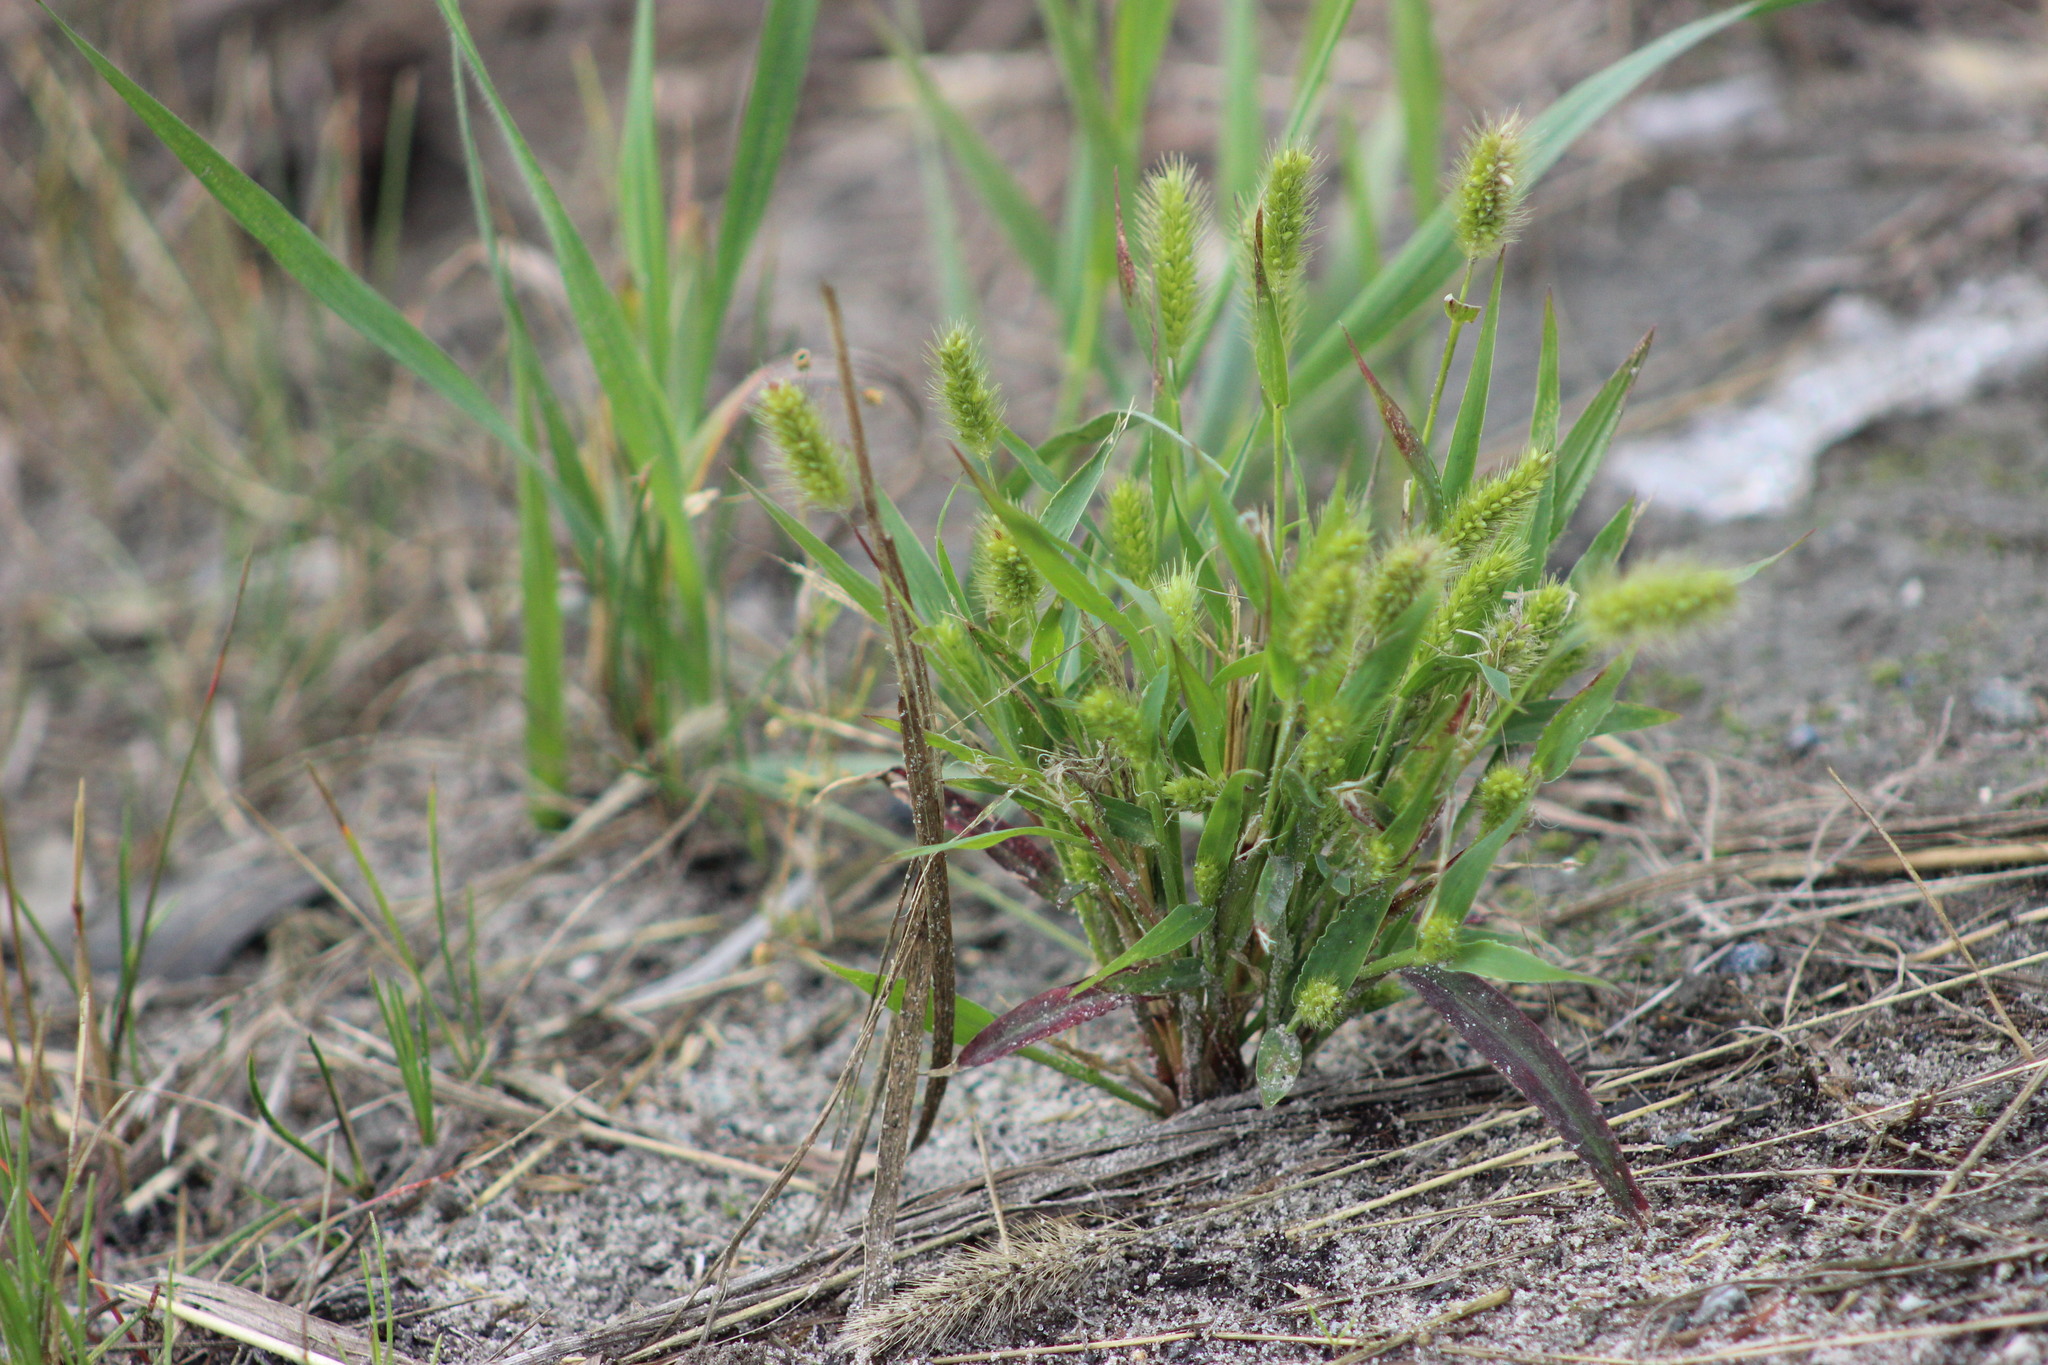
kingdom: Plantae
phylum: Tracheophyta
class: Liliopsida
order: Poales
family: Poaceae
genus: Setaria
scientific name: Setaria viridis
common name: Green bristlegrass
